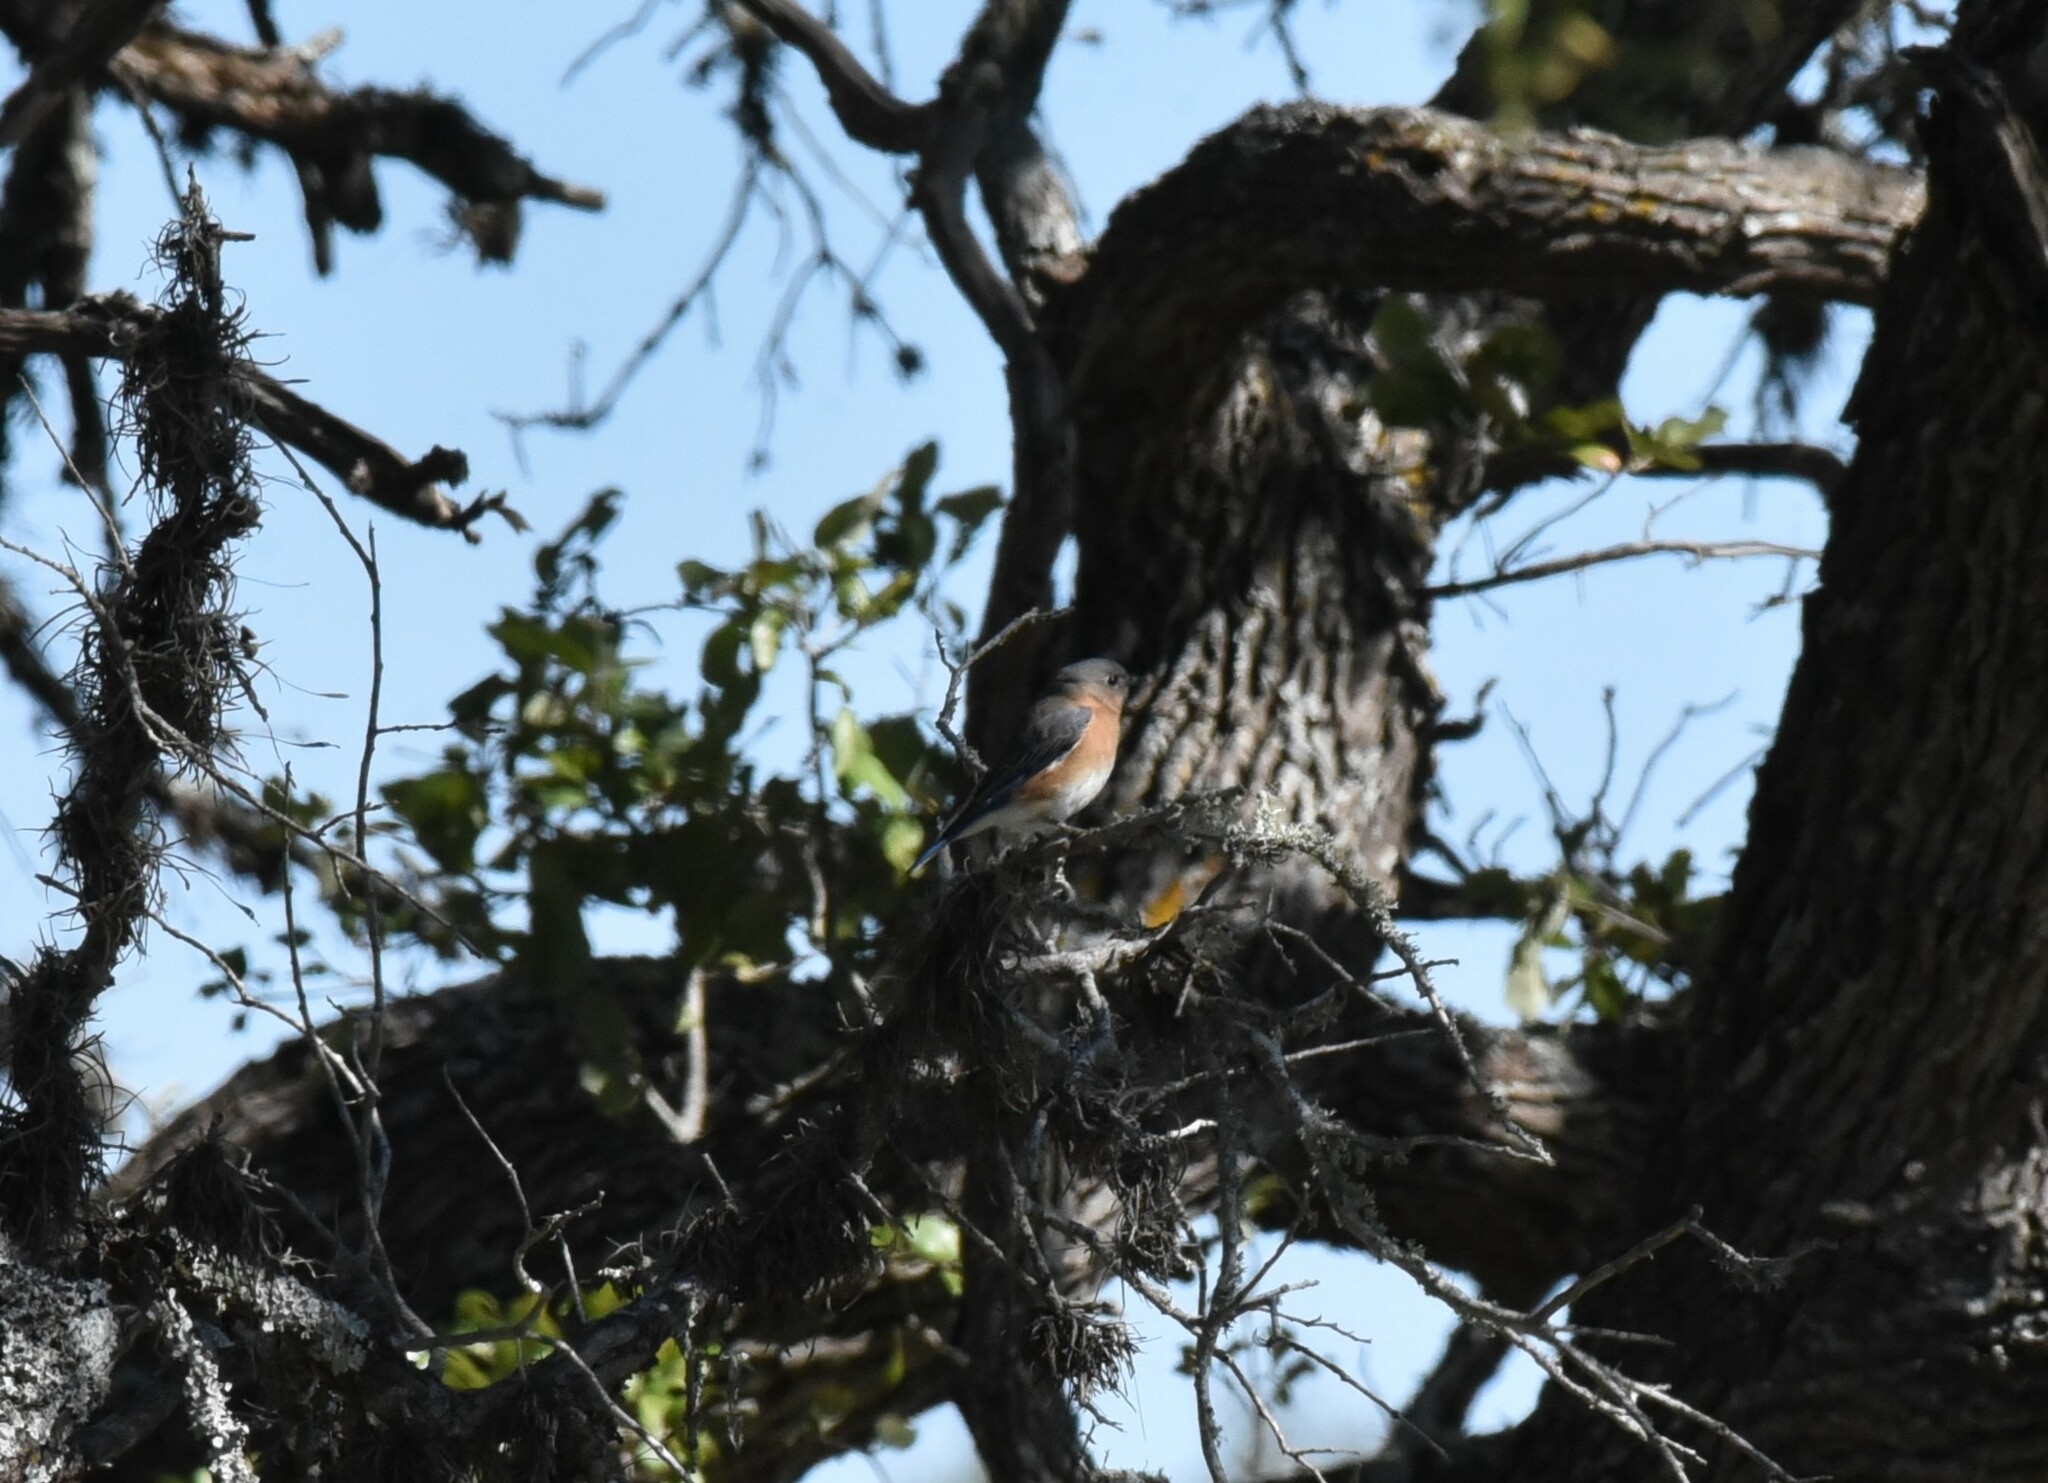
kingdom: Animalia
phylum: Chordata
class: Aves
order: Passeriformes
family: Turdidae
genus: Sialia
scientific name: Sialia sialis
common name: Eastern bluebird
